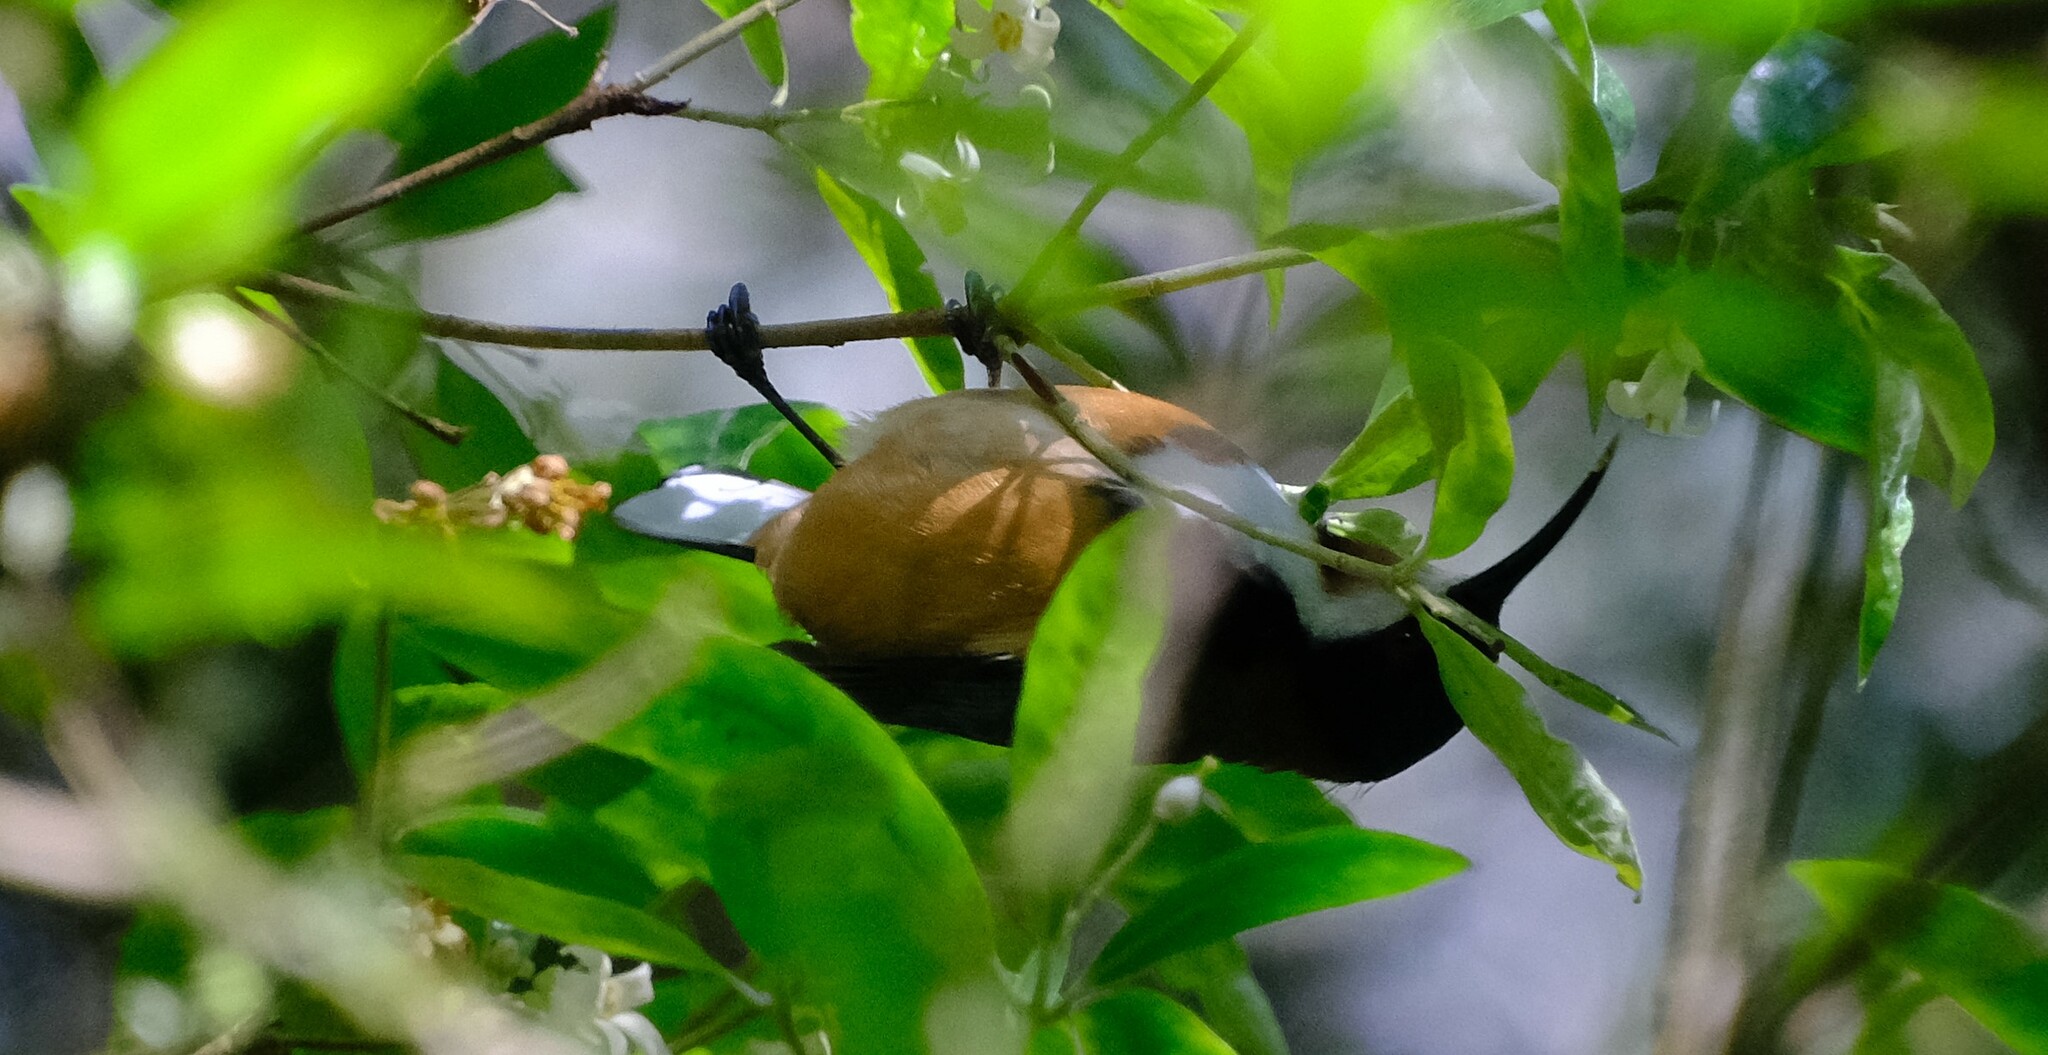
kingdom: Animalia
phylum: Chordata
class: Aves
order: Passeriformes
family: Meliphagidae
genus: Acanthorhynchus
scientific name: Acanthorhynchus tenuirostris
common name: Eastern spinebill
